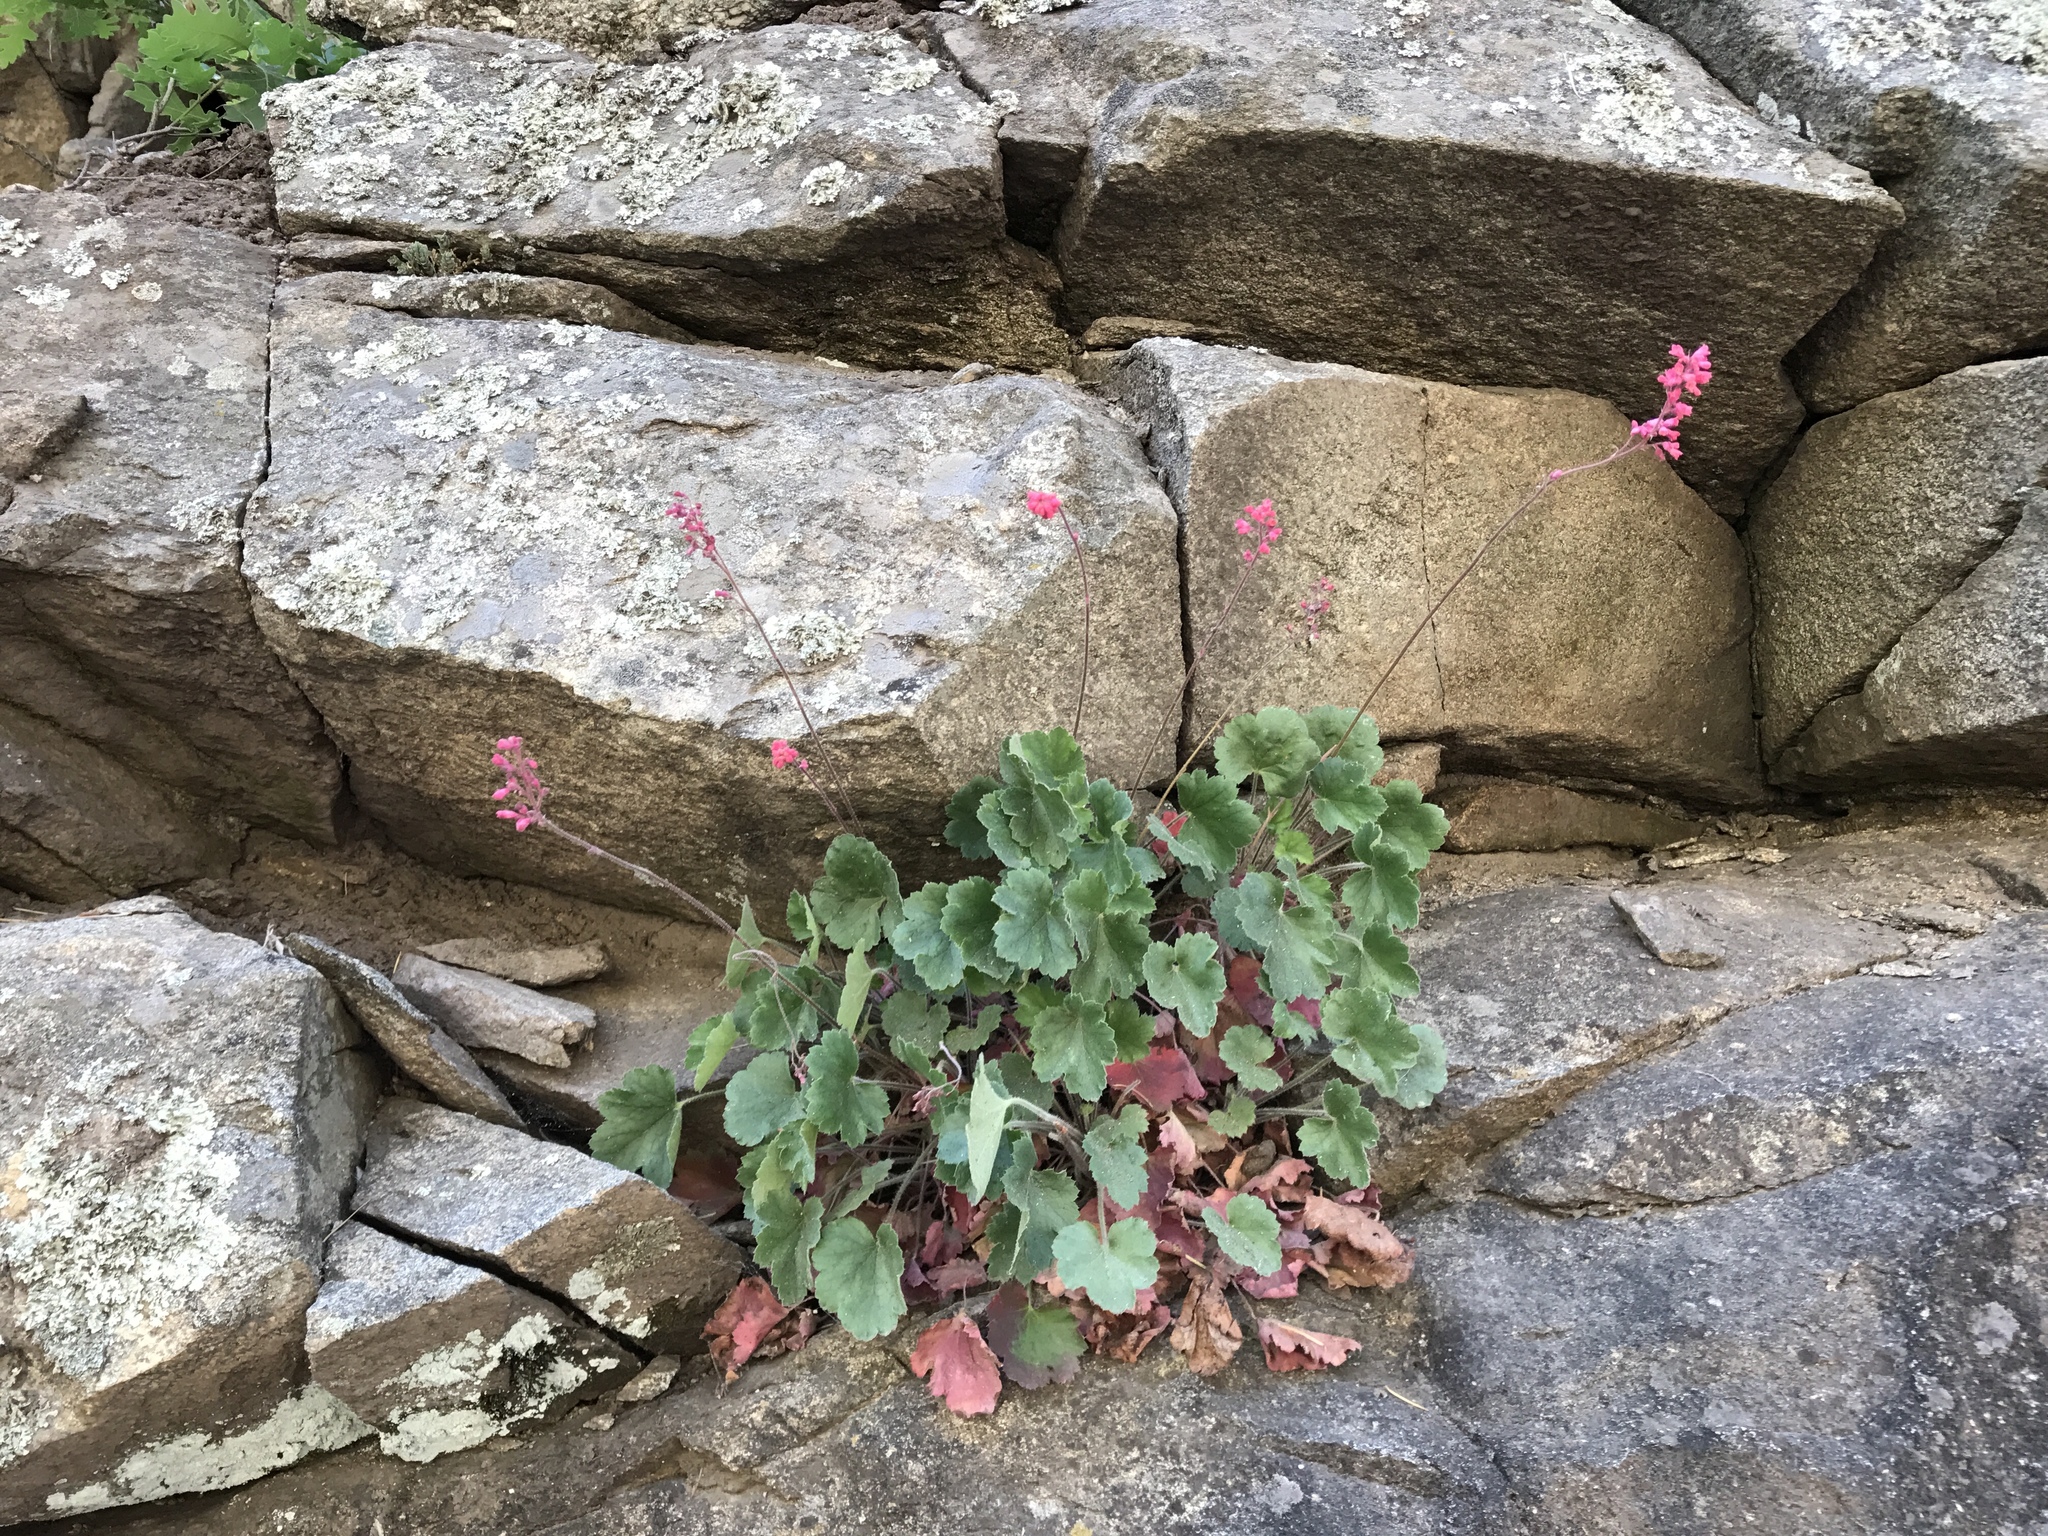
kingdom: Plantae
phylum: Tracheophyta
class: Magnoliopsida
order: Saxifragales
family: Saxifragaceae
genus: Heuchera
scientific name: Heuchera sanguinea
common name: Coralbells
